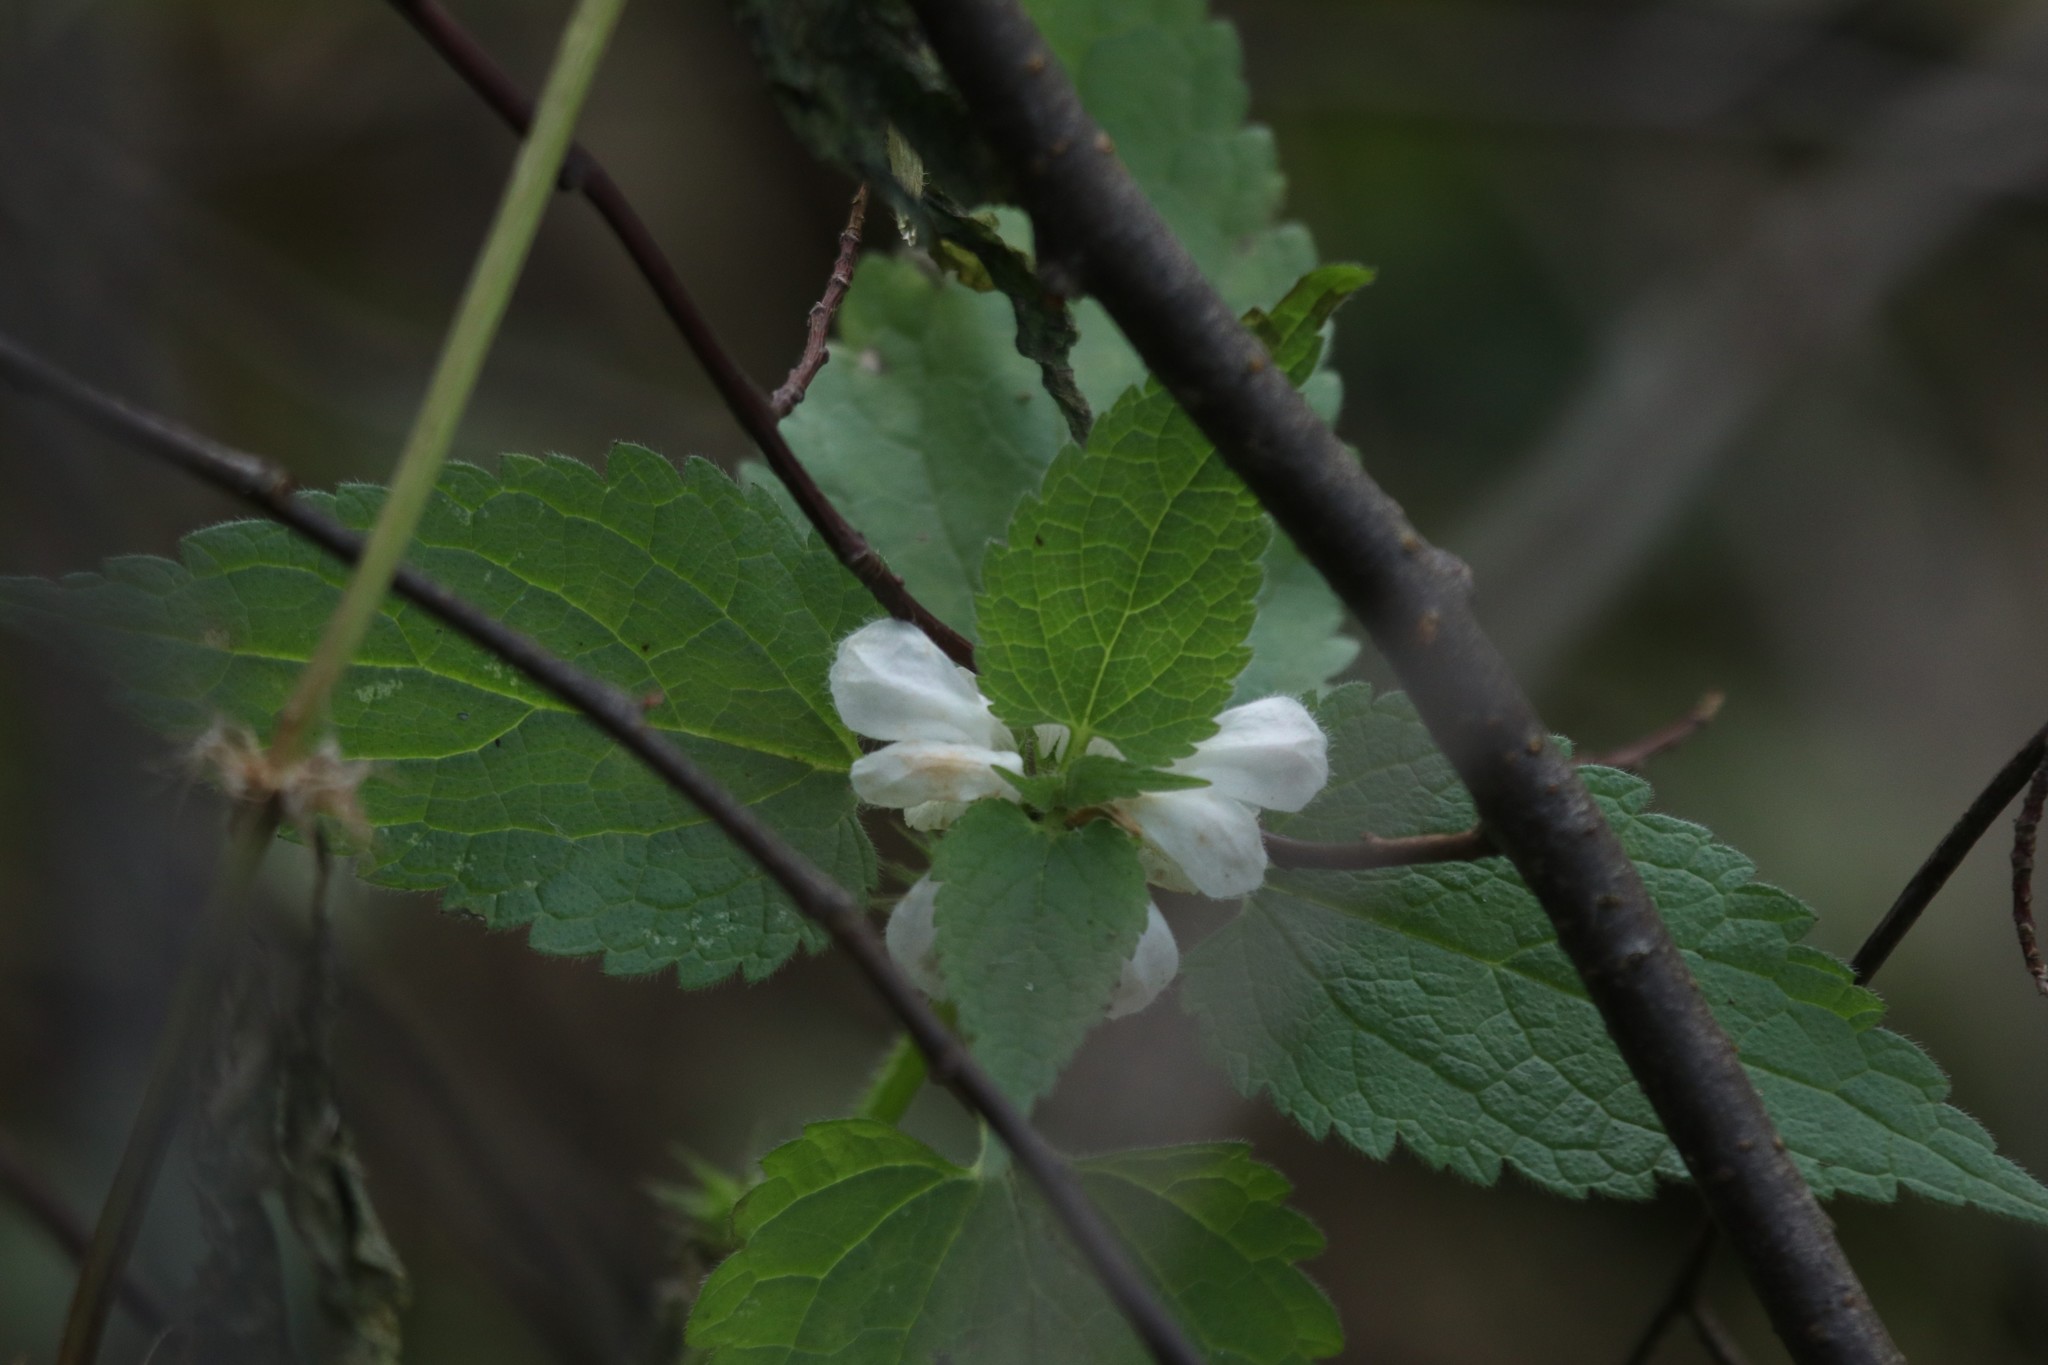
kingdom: Plantae
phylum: Tracheophyta
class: Magnoliopsida
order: Lamiales
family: Lamiaceae
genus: Lamium
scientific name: Lamium album
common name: White dead-nettle
